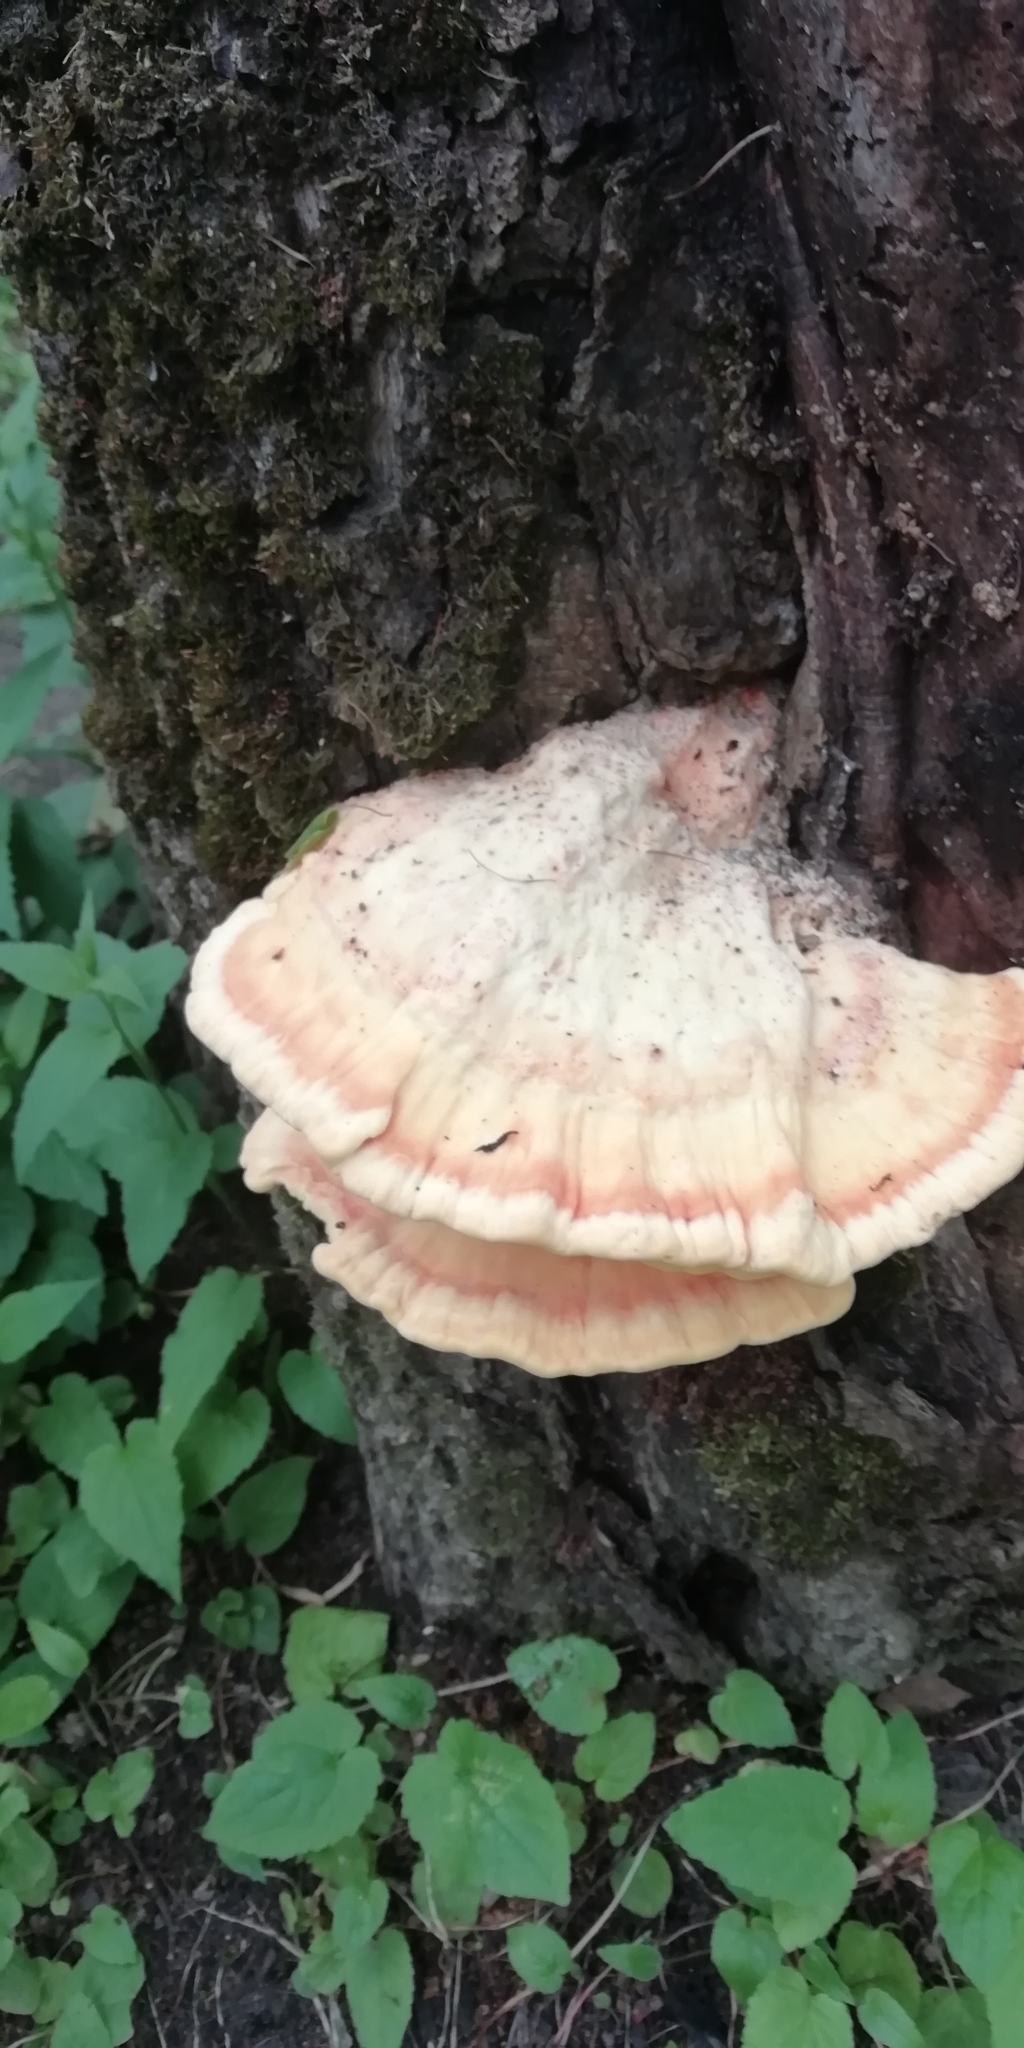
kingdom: Fungi
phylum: Basidiomycota
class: Agaricomycetes
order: Polyporales
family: Laetiporaceae
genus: Laetiporus
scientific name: Laetiporus sulphureus
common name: Chicken of the woods
